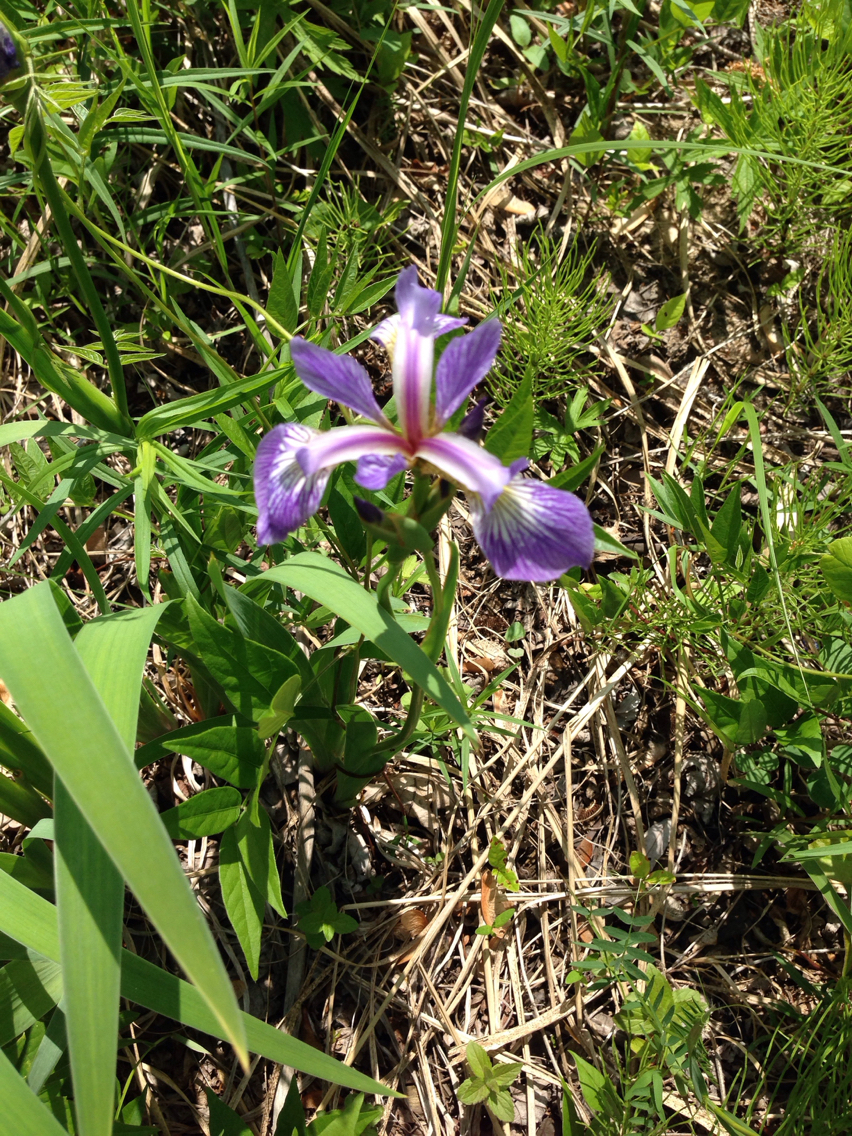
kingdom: Plantae
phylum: Tracheophyta
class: Liliopsida
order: Asparagales
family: Iridaceae
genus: Iris
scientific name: Iris versicolor
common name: Purple iris
